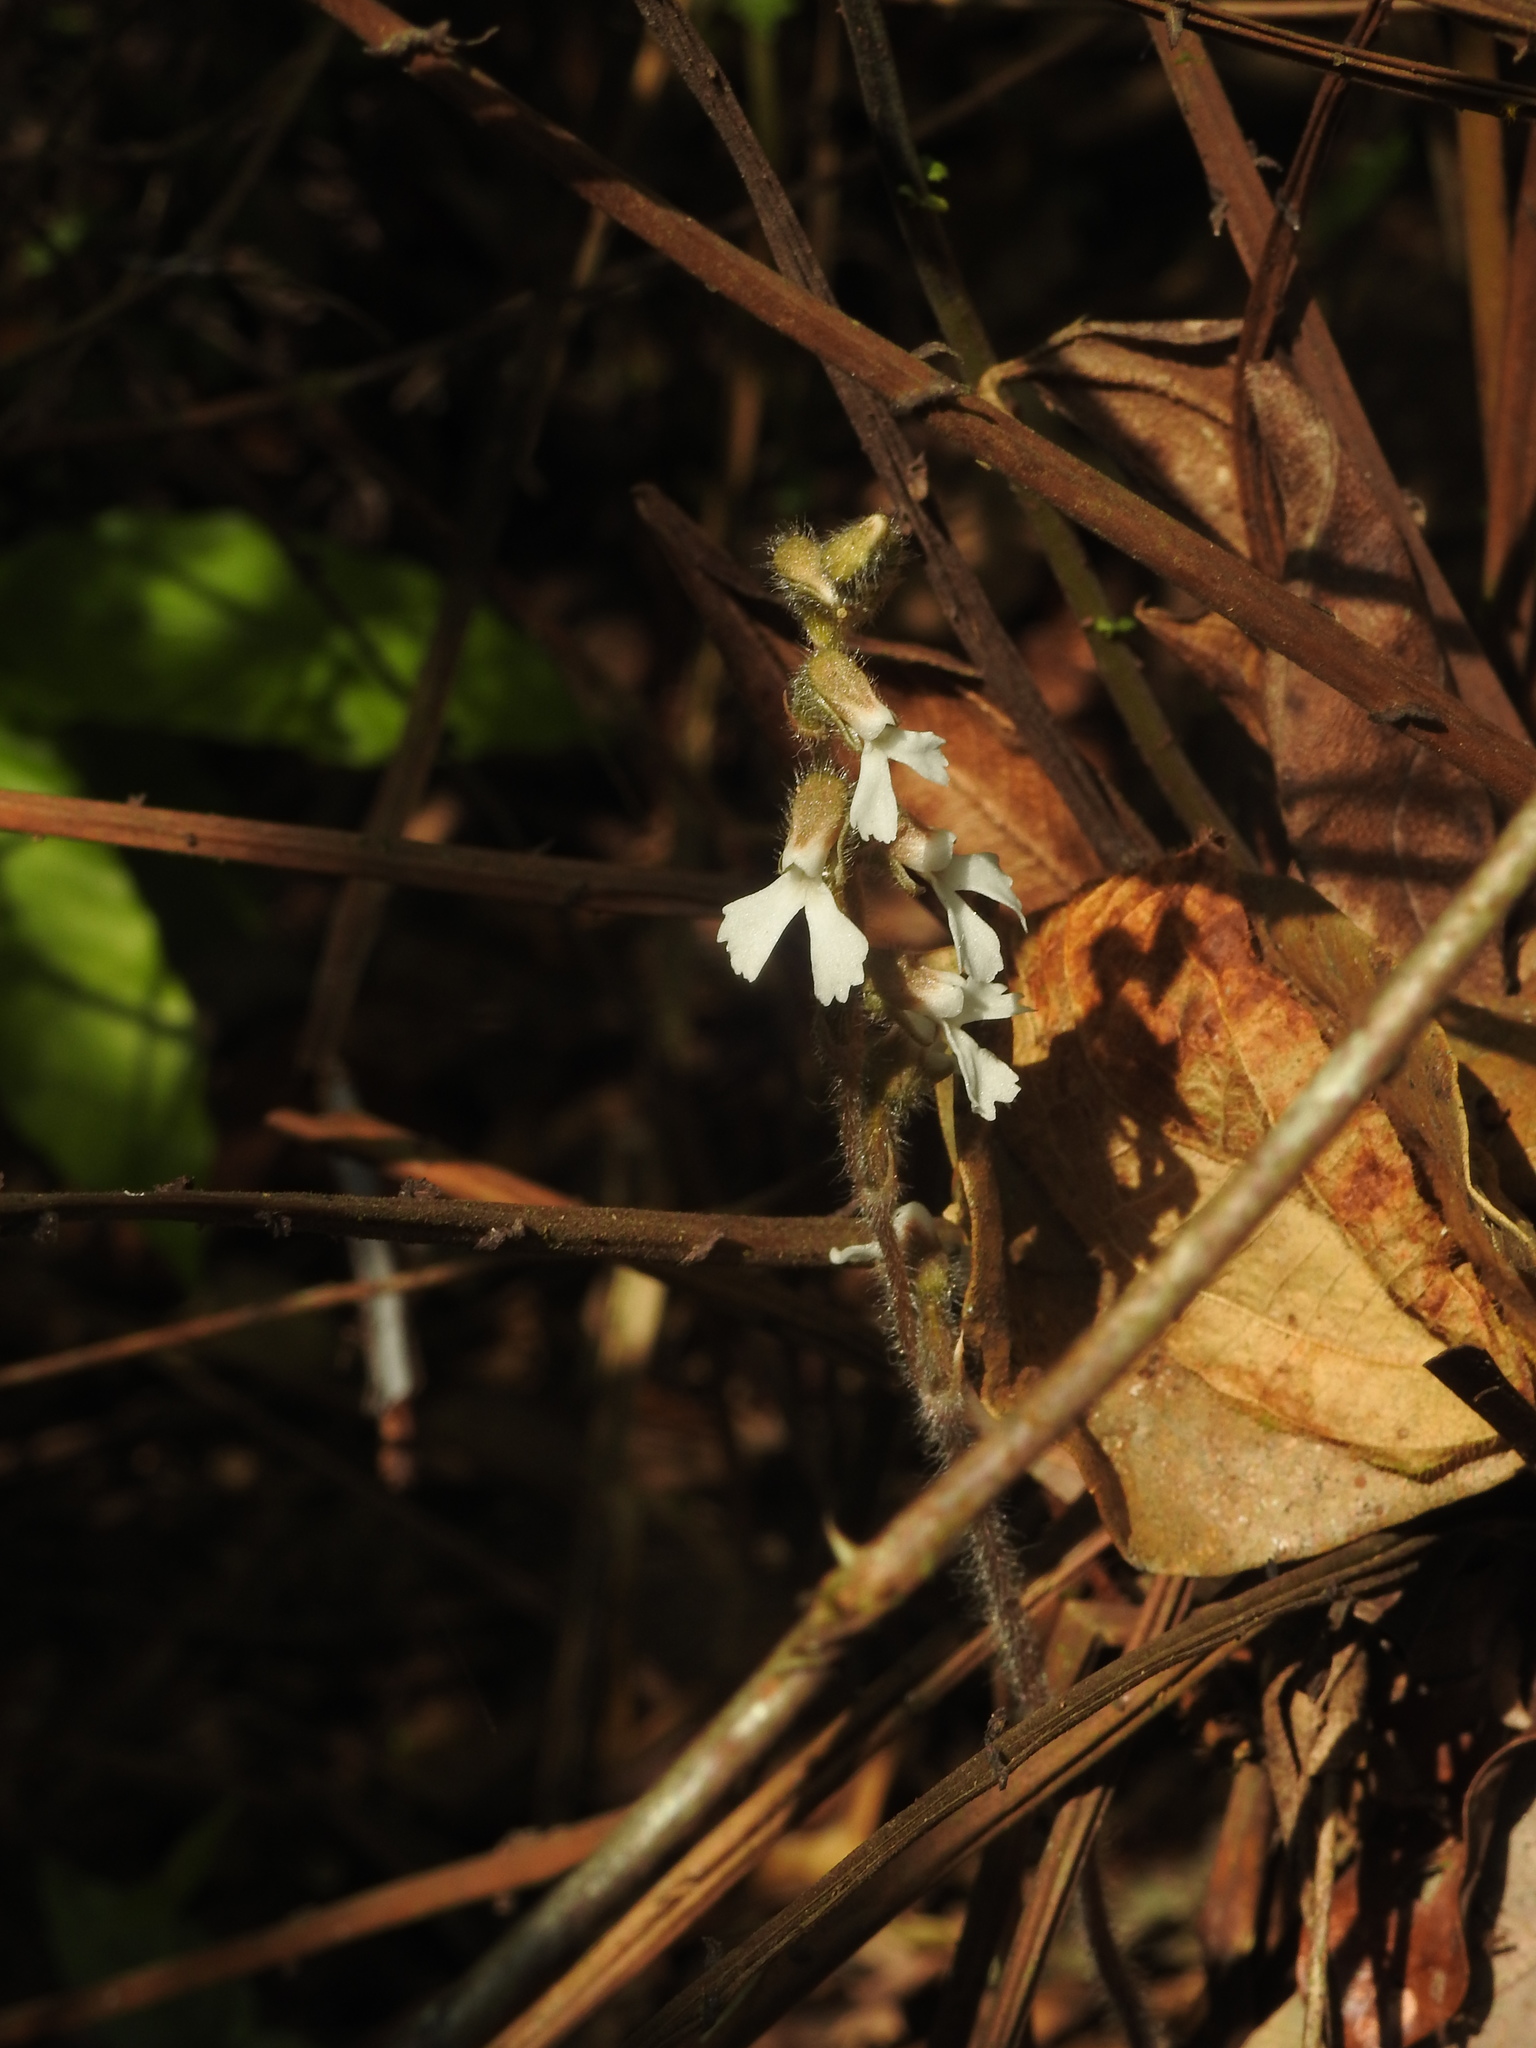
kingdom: Plantae
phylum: Tracheophyta
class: Liliopsida
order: Asparagales
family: Orchidaceae
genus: Zeuxine
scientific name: Zeuxine longilabris
